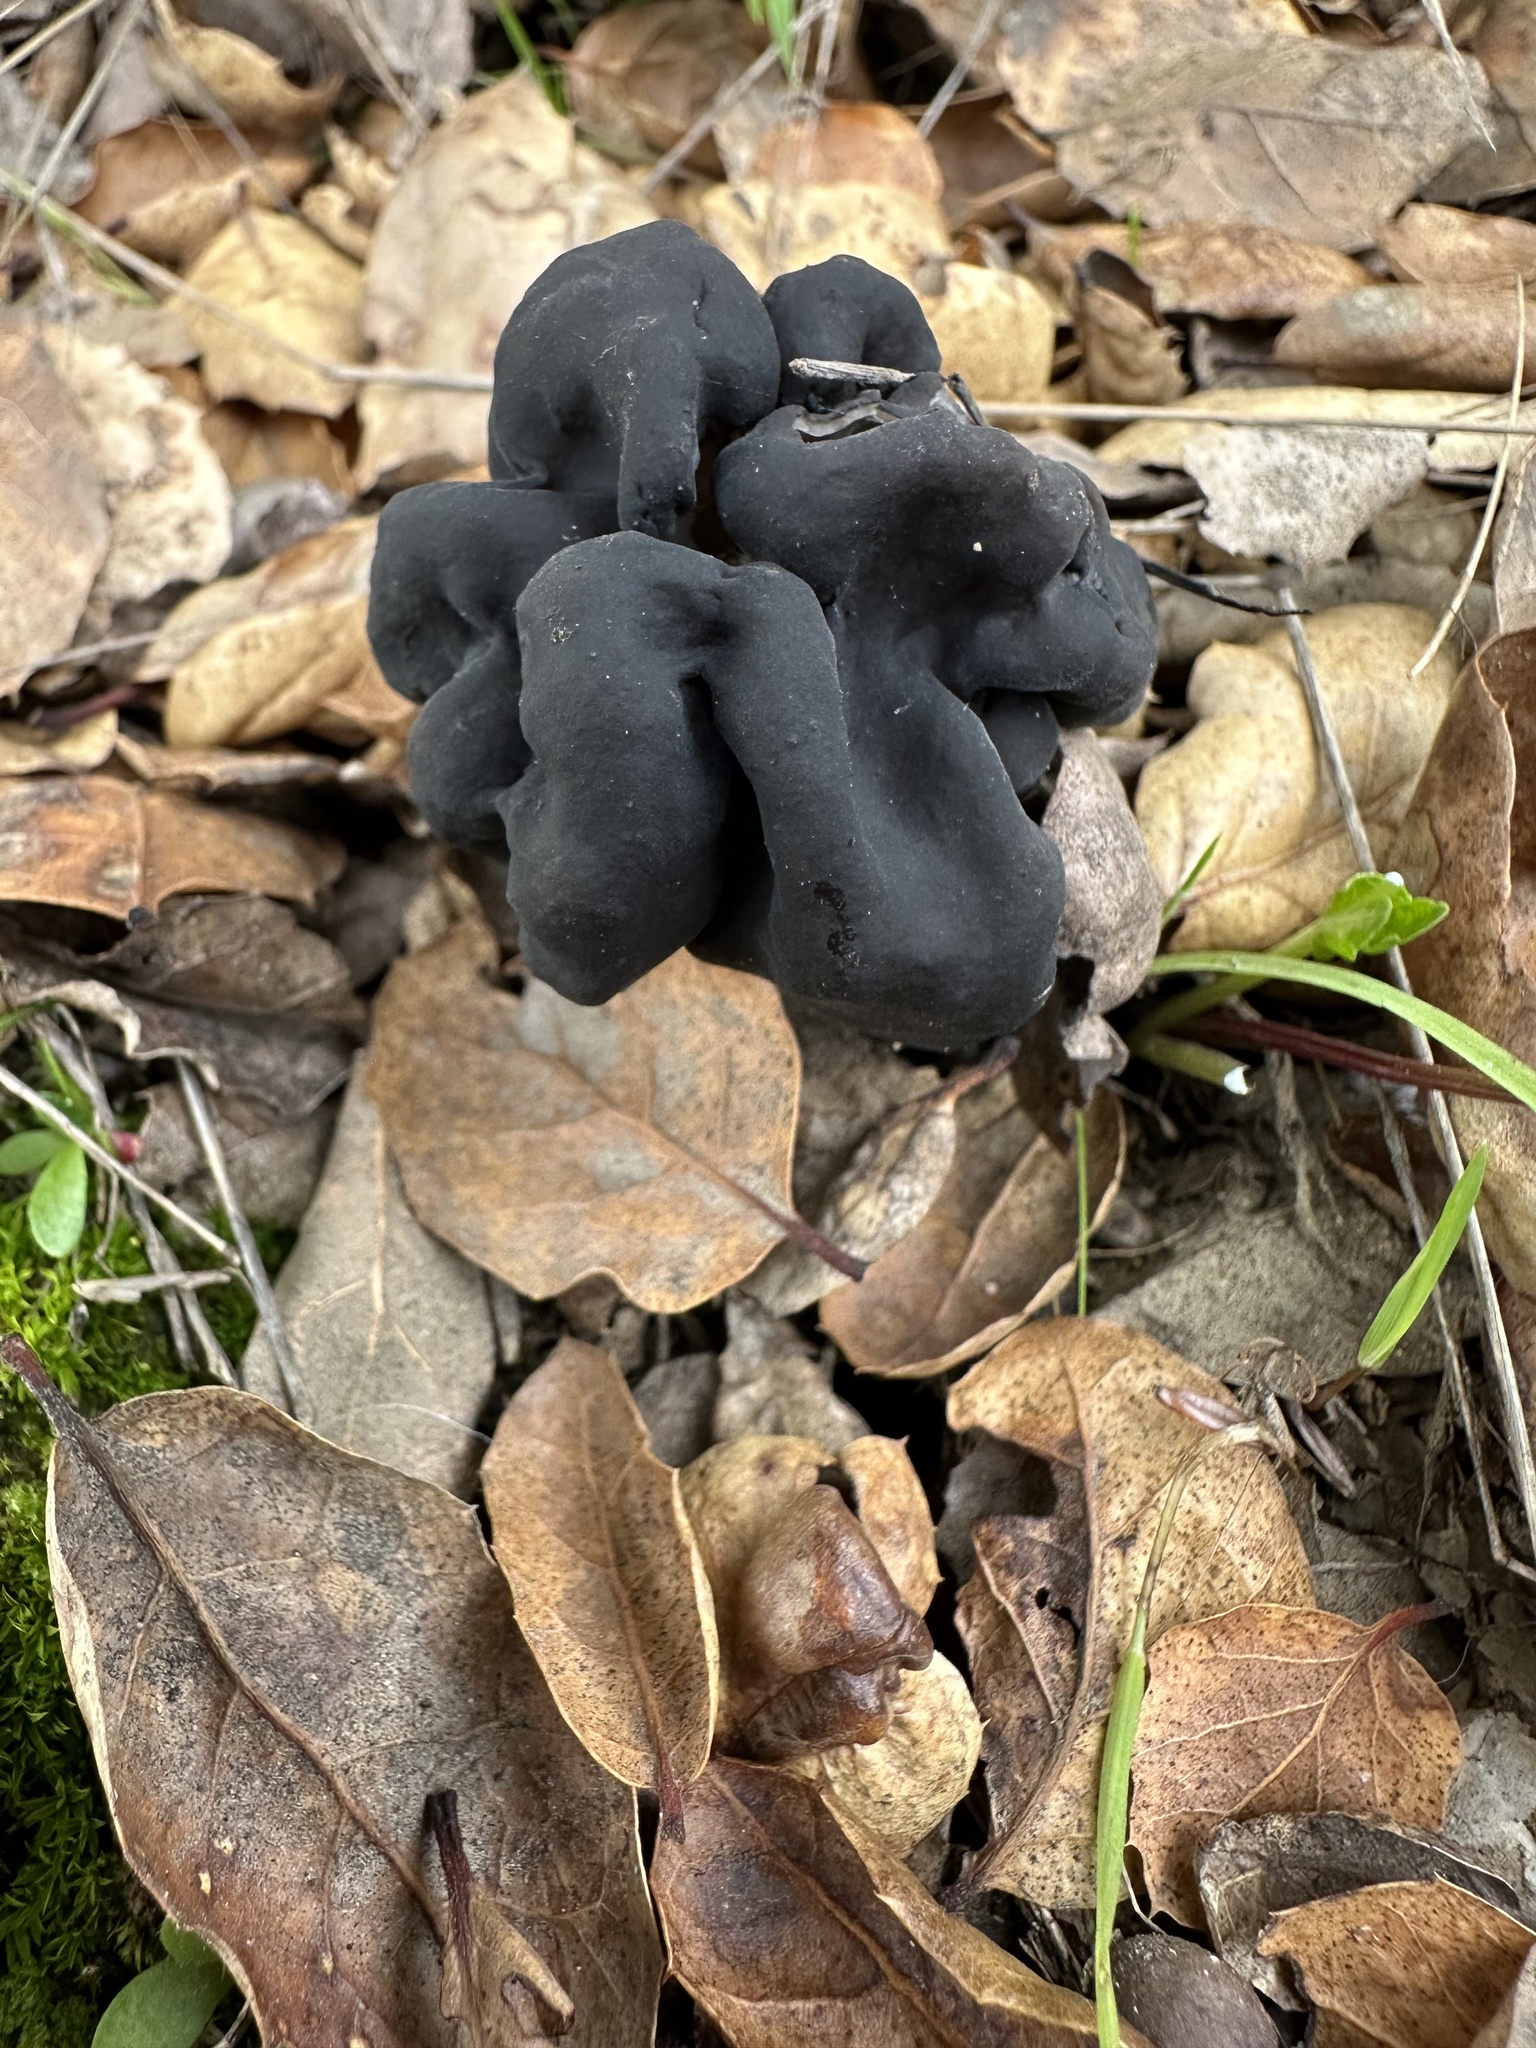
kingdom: Fungi
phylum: Ascomycota
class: Pezizomycetes
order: Pezizales
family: Helvellaceae
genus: Helvella
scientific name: Helvella dryophila
